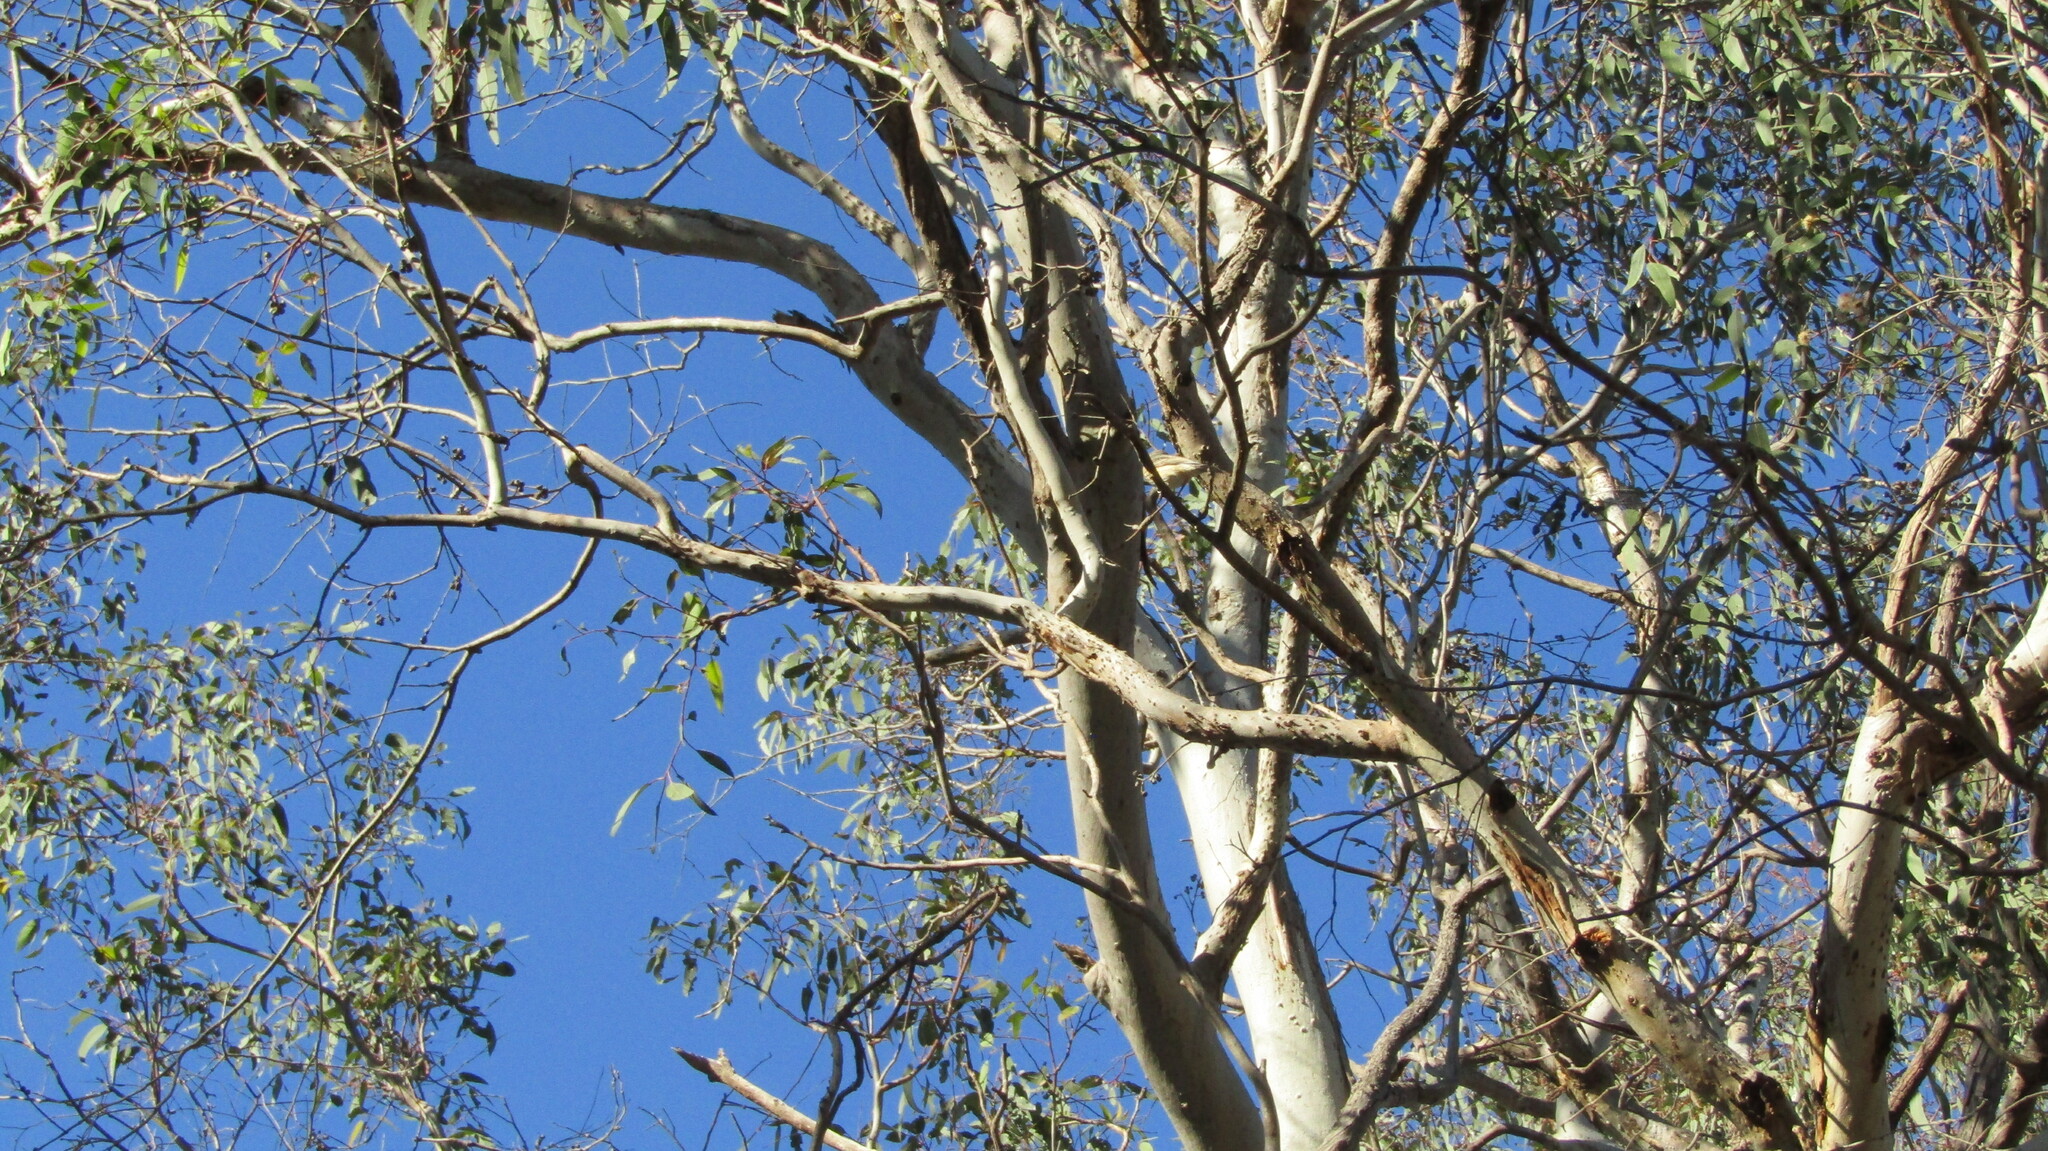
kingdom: Animalia
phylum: Chordata
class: Aves
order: Passeriformes
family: Pachycephalidae
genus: Pachycephala
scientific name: Pachycephala rufiventris
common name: Rufous whistler
